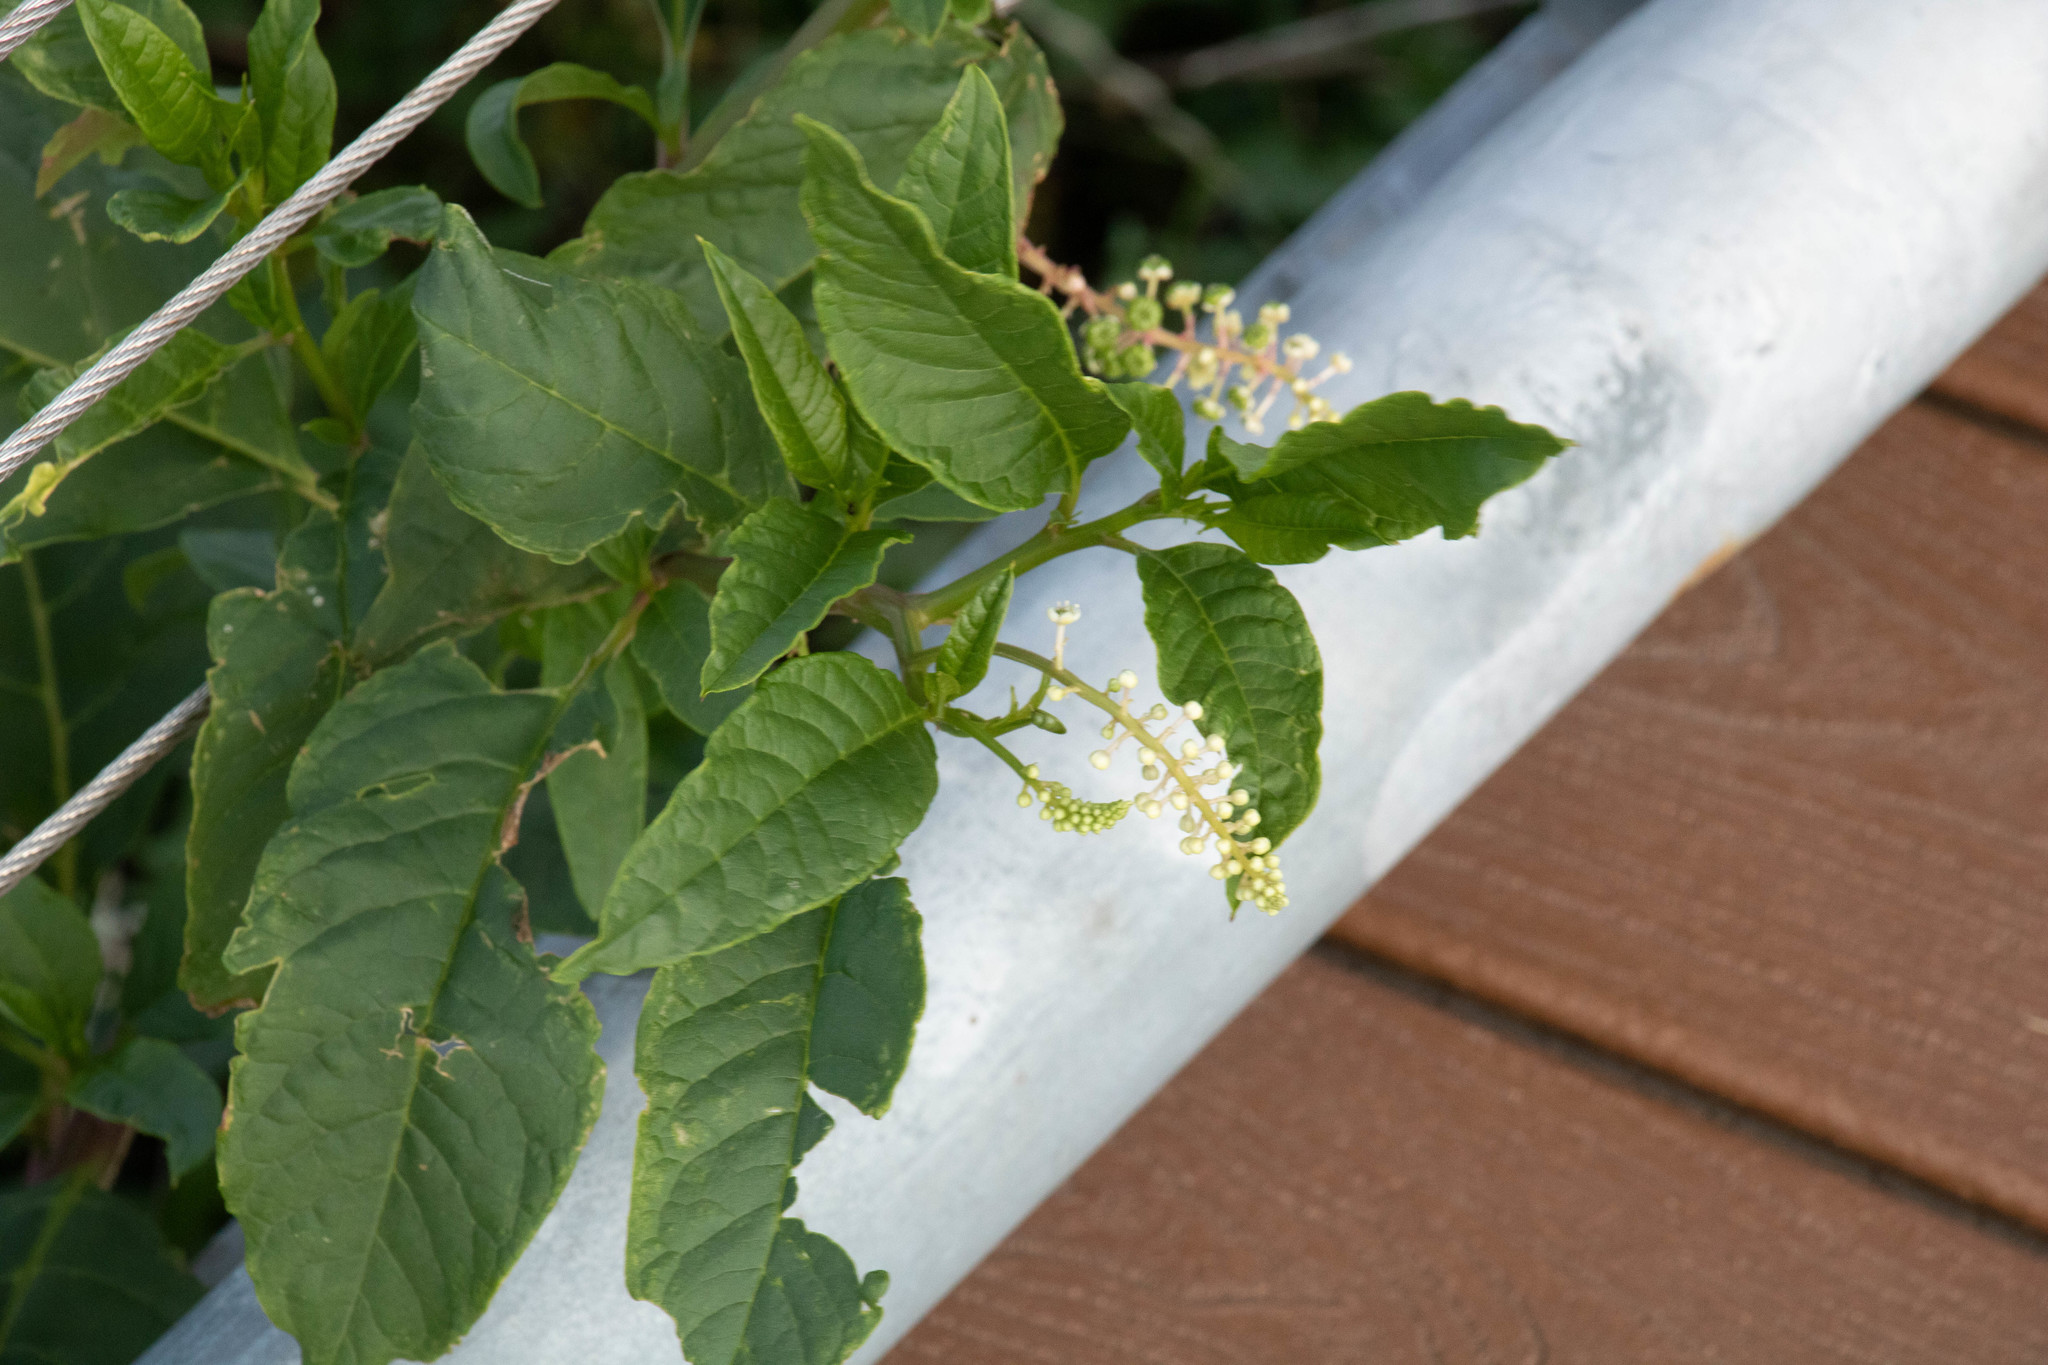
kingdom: Plantae
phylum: Tracheophyta
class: Magnoliopsida
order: Caryophyllales
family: Phytolaccaceae
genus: Phytolacca
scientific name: Phytolacca americana
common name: American pokeweed
